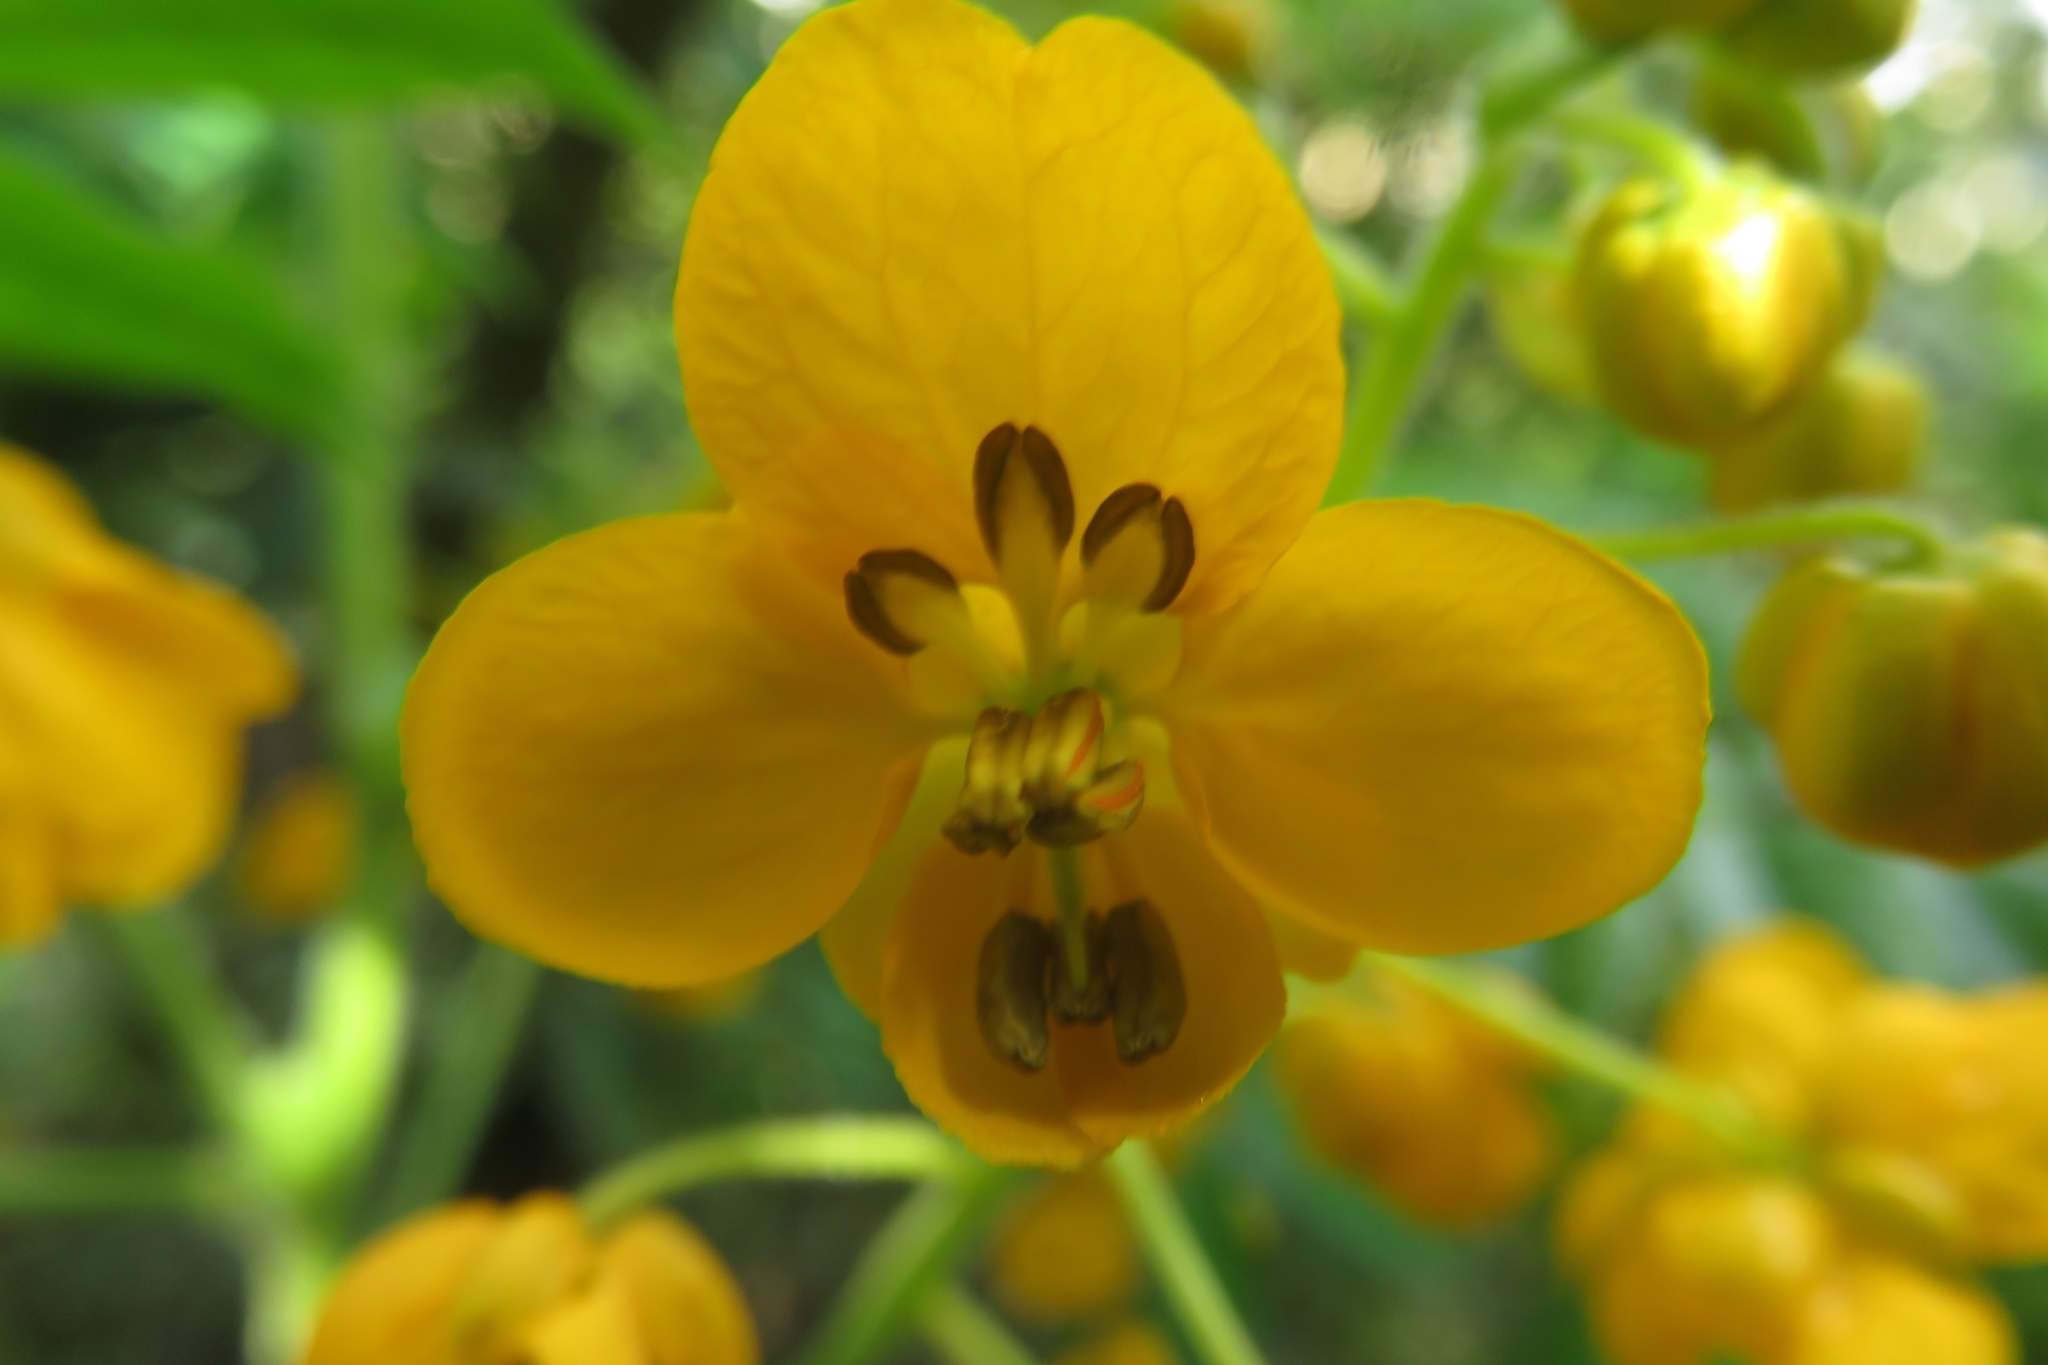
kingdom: Plantae
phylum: Tracheophyta
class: Magnoliopsida
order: Fabales
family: Fabaceae
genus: Senna
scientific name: Senna stipulacea
